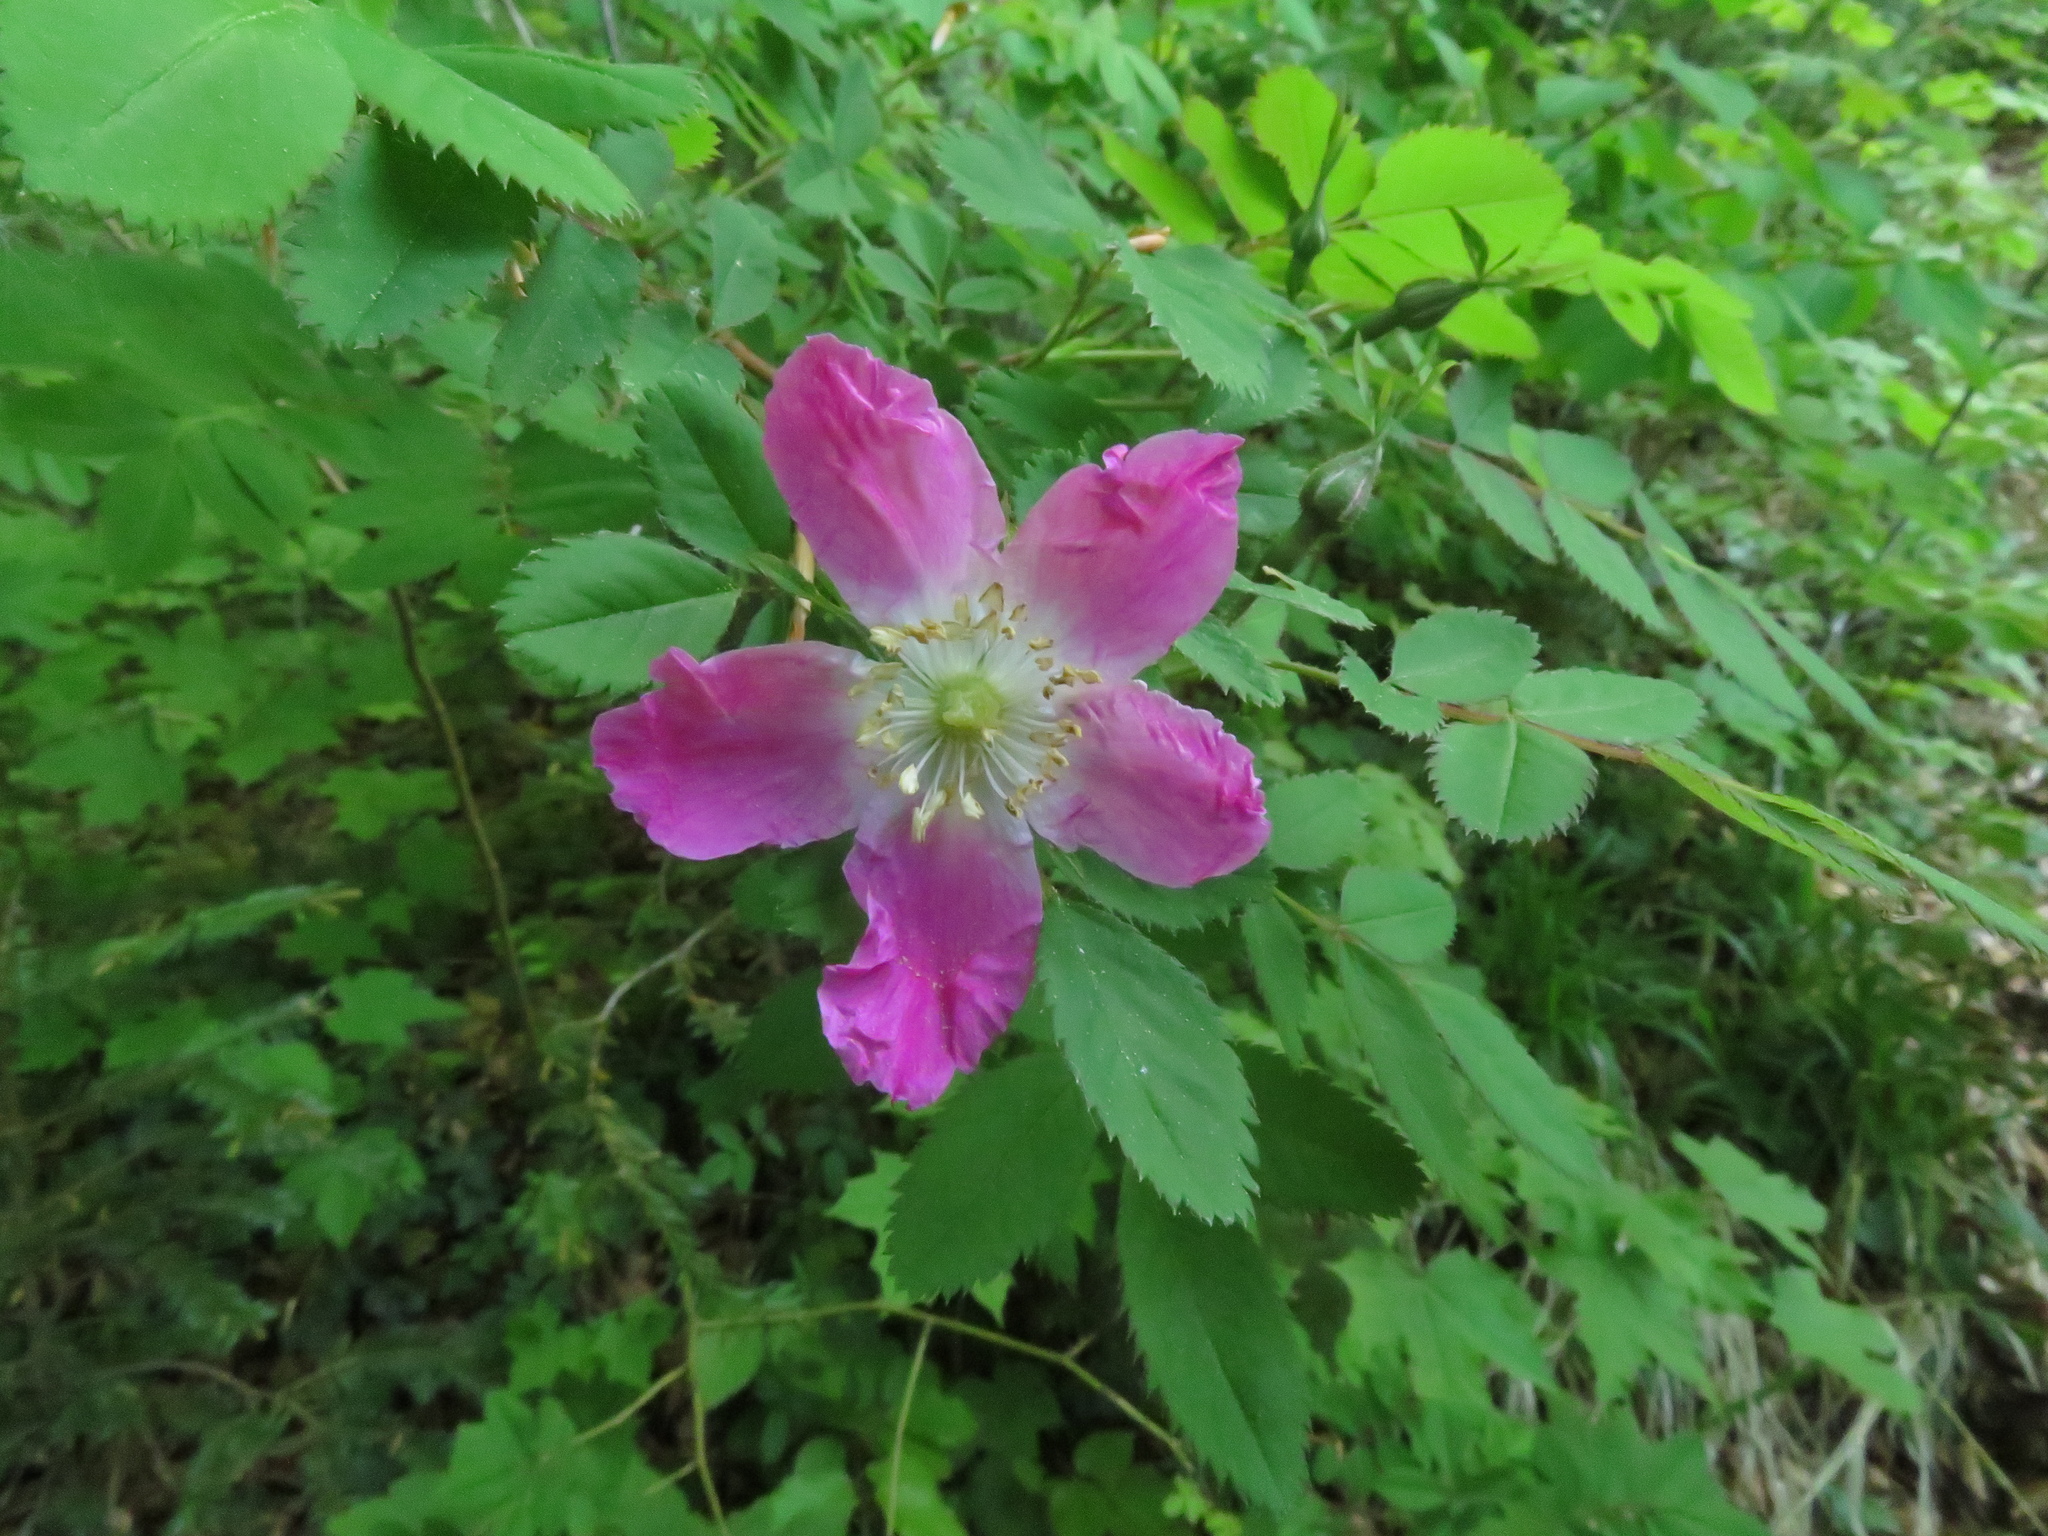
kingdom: Plantae
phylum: Tracheophyta
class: Magnoliopsida
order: Rosales
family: Rosaceae
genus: Rosa
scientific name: Rosa pendulina
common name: Alpine rose
